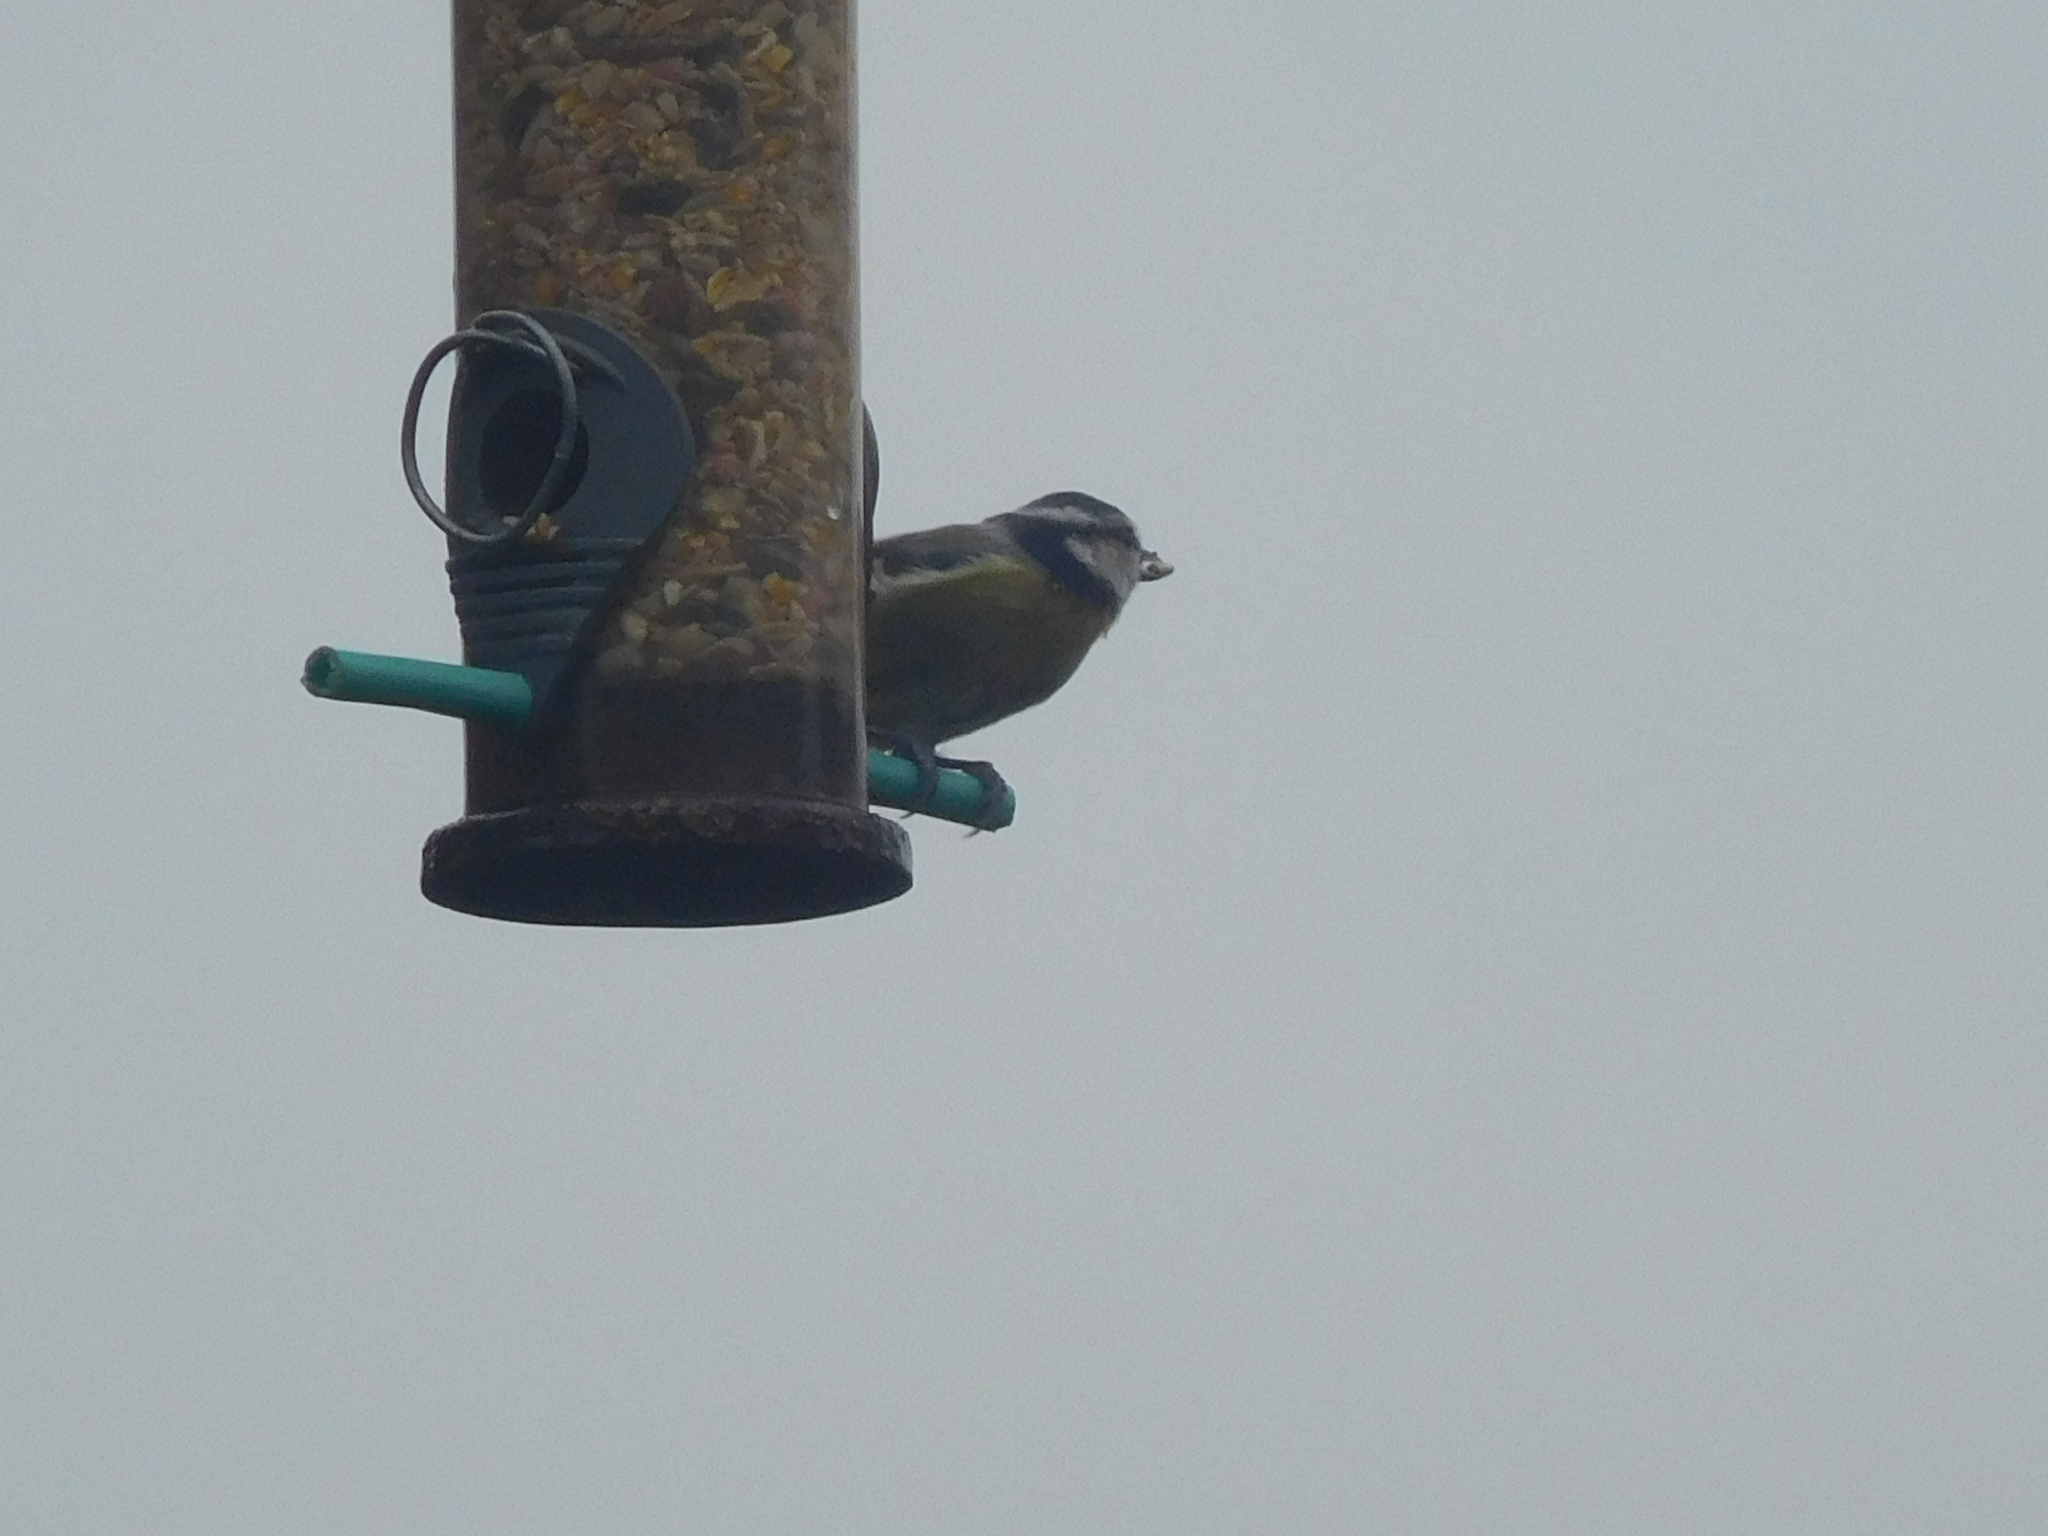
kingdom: Animalia
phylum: Chordata
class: Aves
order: Passeriformes
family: Paridae
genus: Cyanistes
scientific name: Cyanistes caeruleus
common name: Eurasian blue tit
